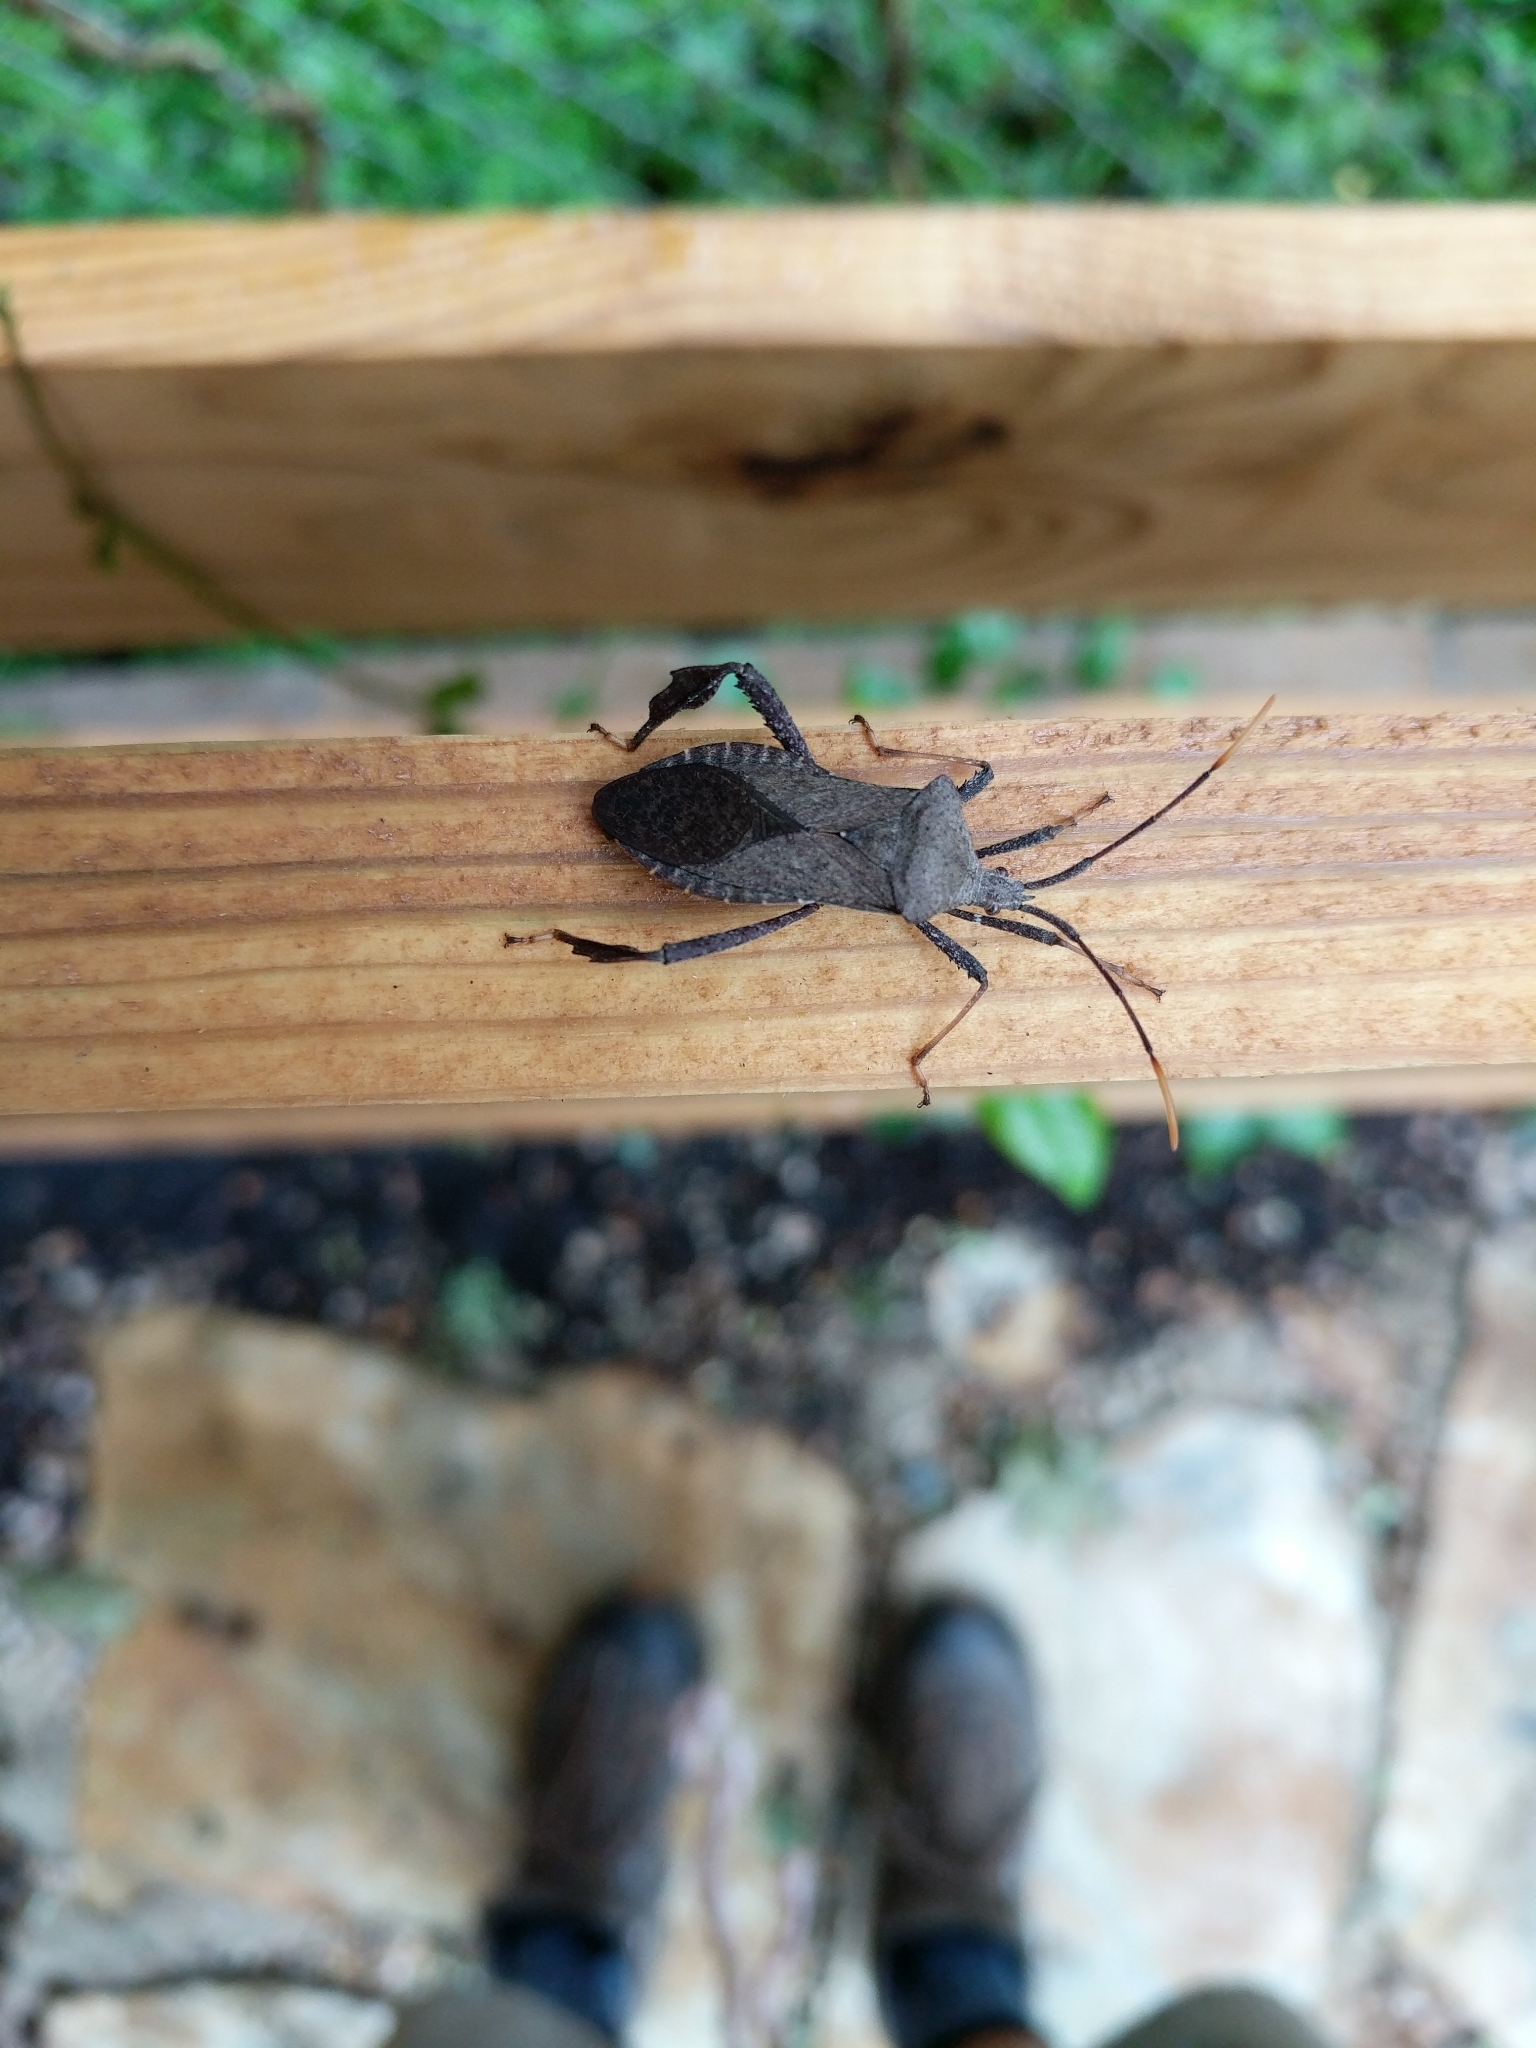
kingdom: Animalia
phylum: Arthropoda
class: Insecta
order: Hemiptera
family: Coreidae
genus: Acanthocephala
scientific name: Acanthocephala terminalis
